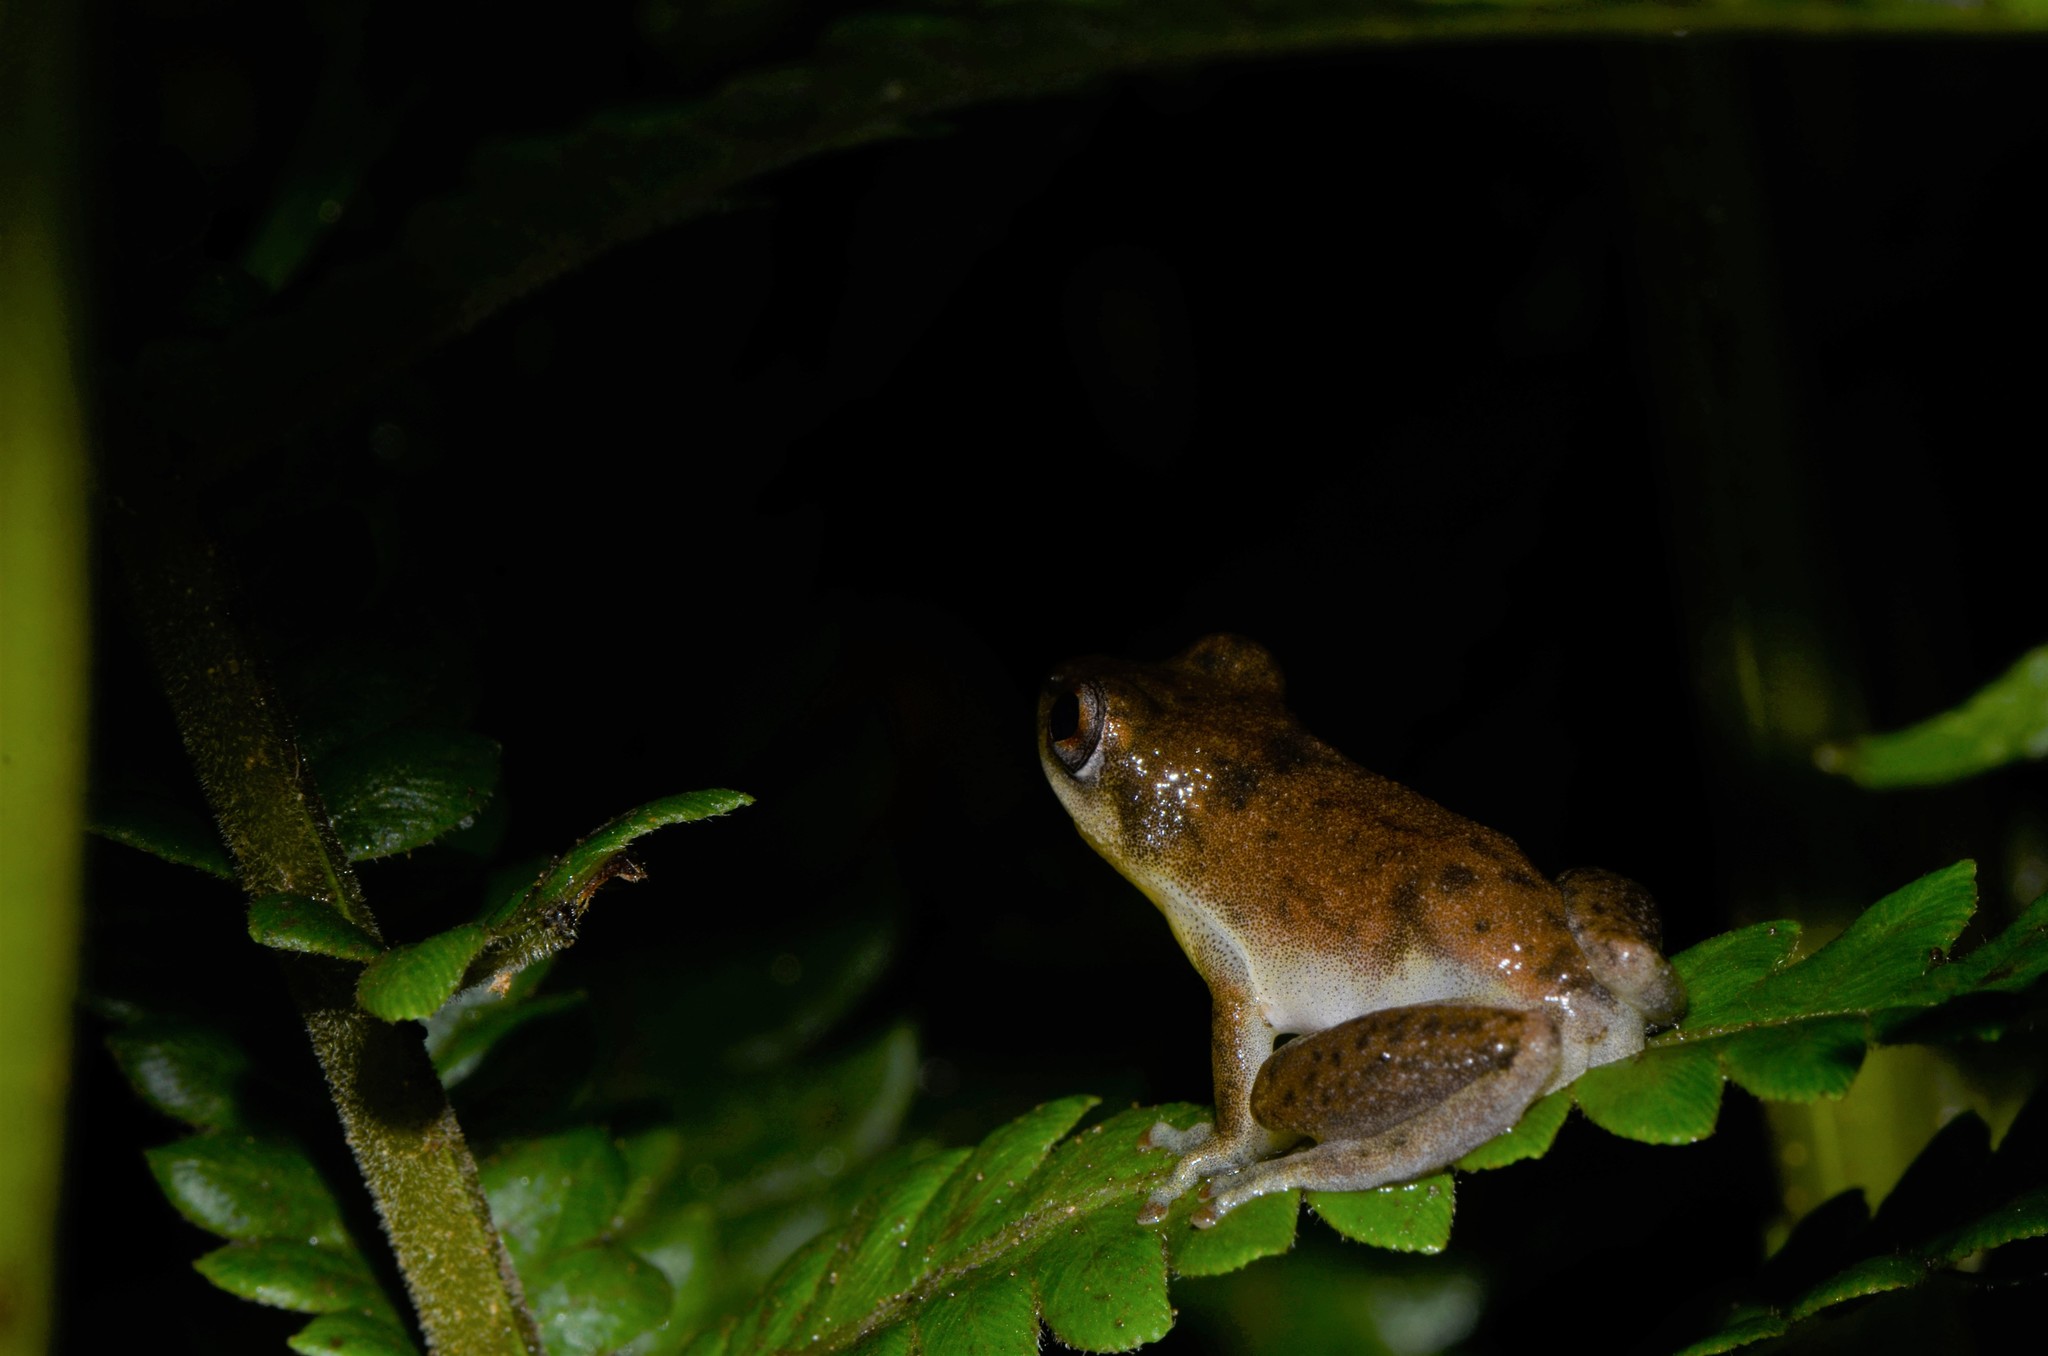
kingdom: Animalia
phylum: Chordata
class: Amphibia
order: Anura
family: Hyperoliidae
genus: Hyperolius
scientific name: Hyperolius stictus
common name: Yellow-spotted reed frog
